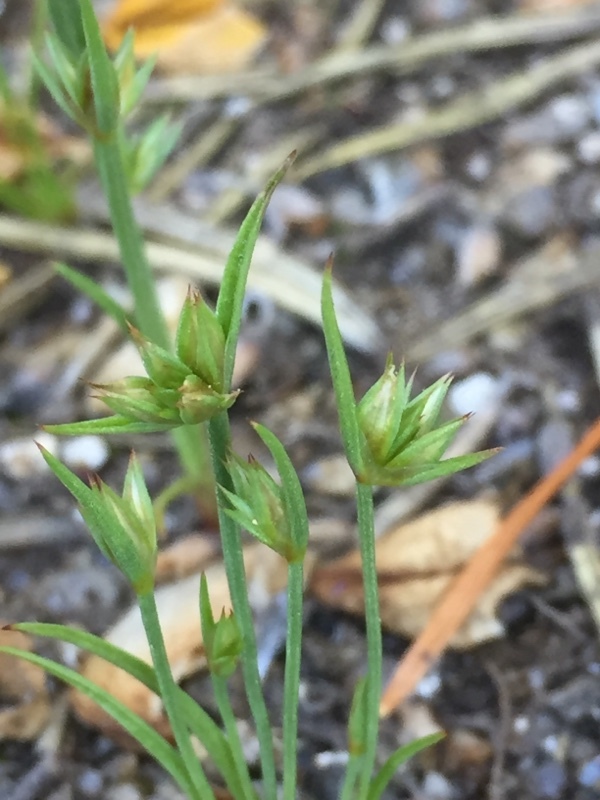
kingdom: Plantae
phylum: Tracheophyta
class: Liliopsida
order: Poales
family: Juncaceae
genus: Juncus
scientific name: Juncus capitatus
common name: Dwarf rush
